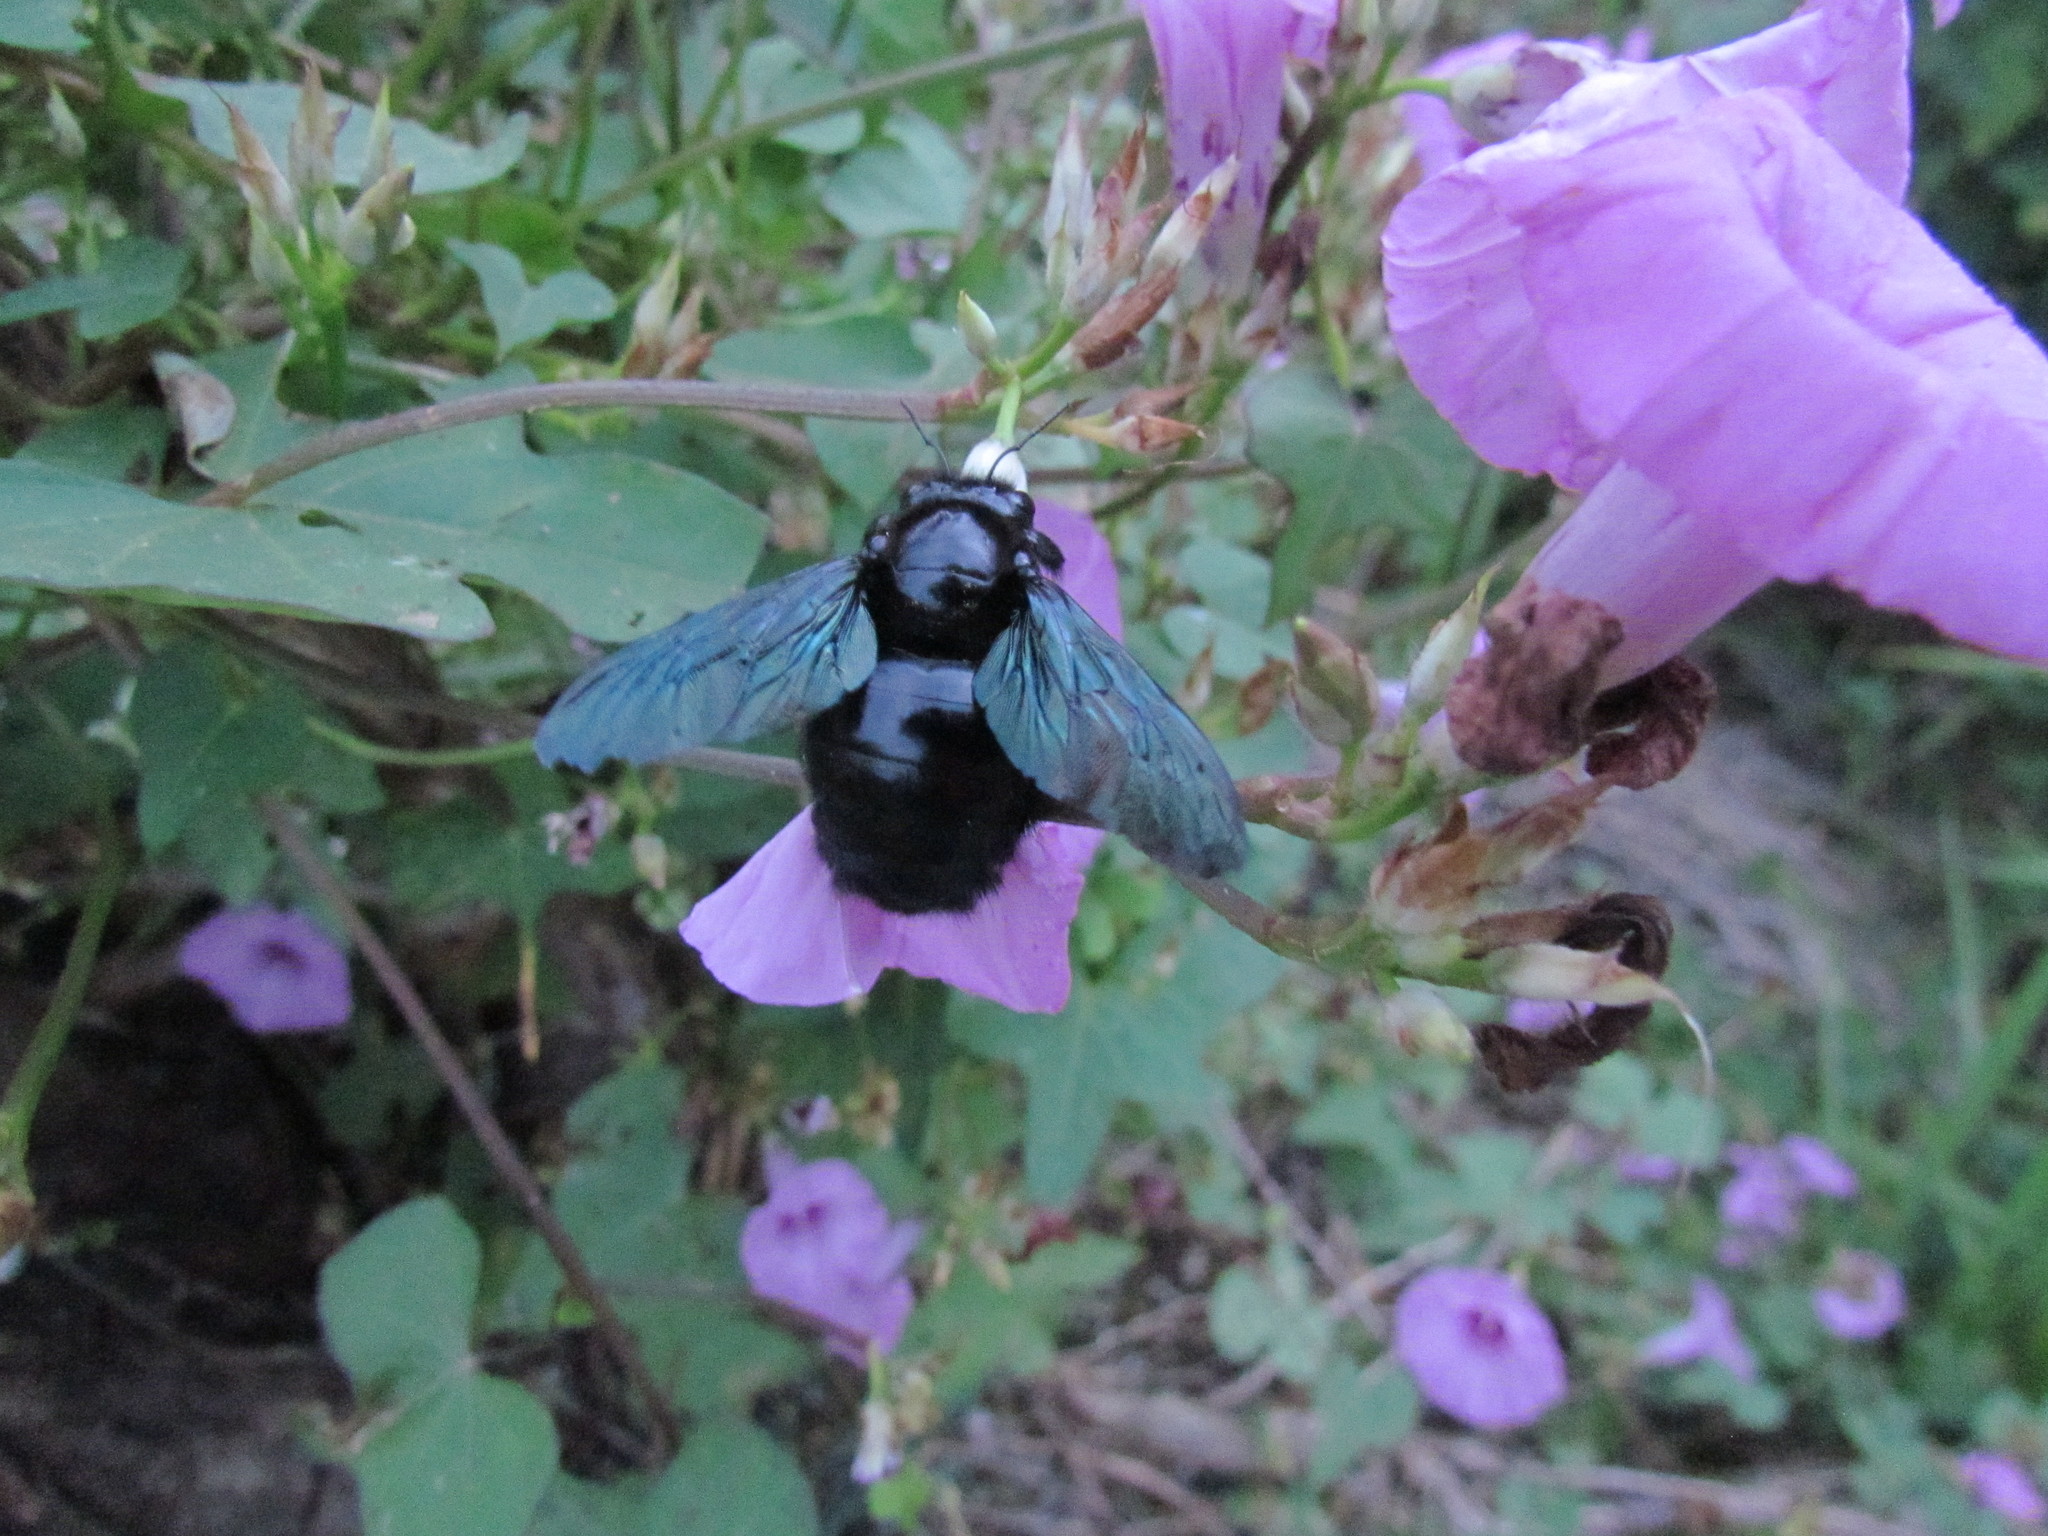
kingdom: Animalia
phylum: Arthropoda
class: Insecta
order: Hymenoptera
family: Apidae
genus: Xylocopa
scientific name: Xylocopa fimbriata
